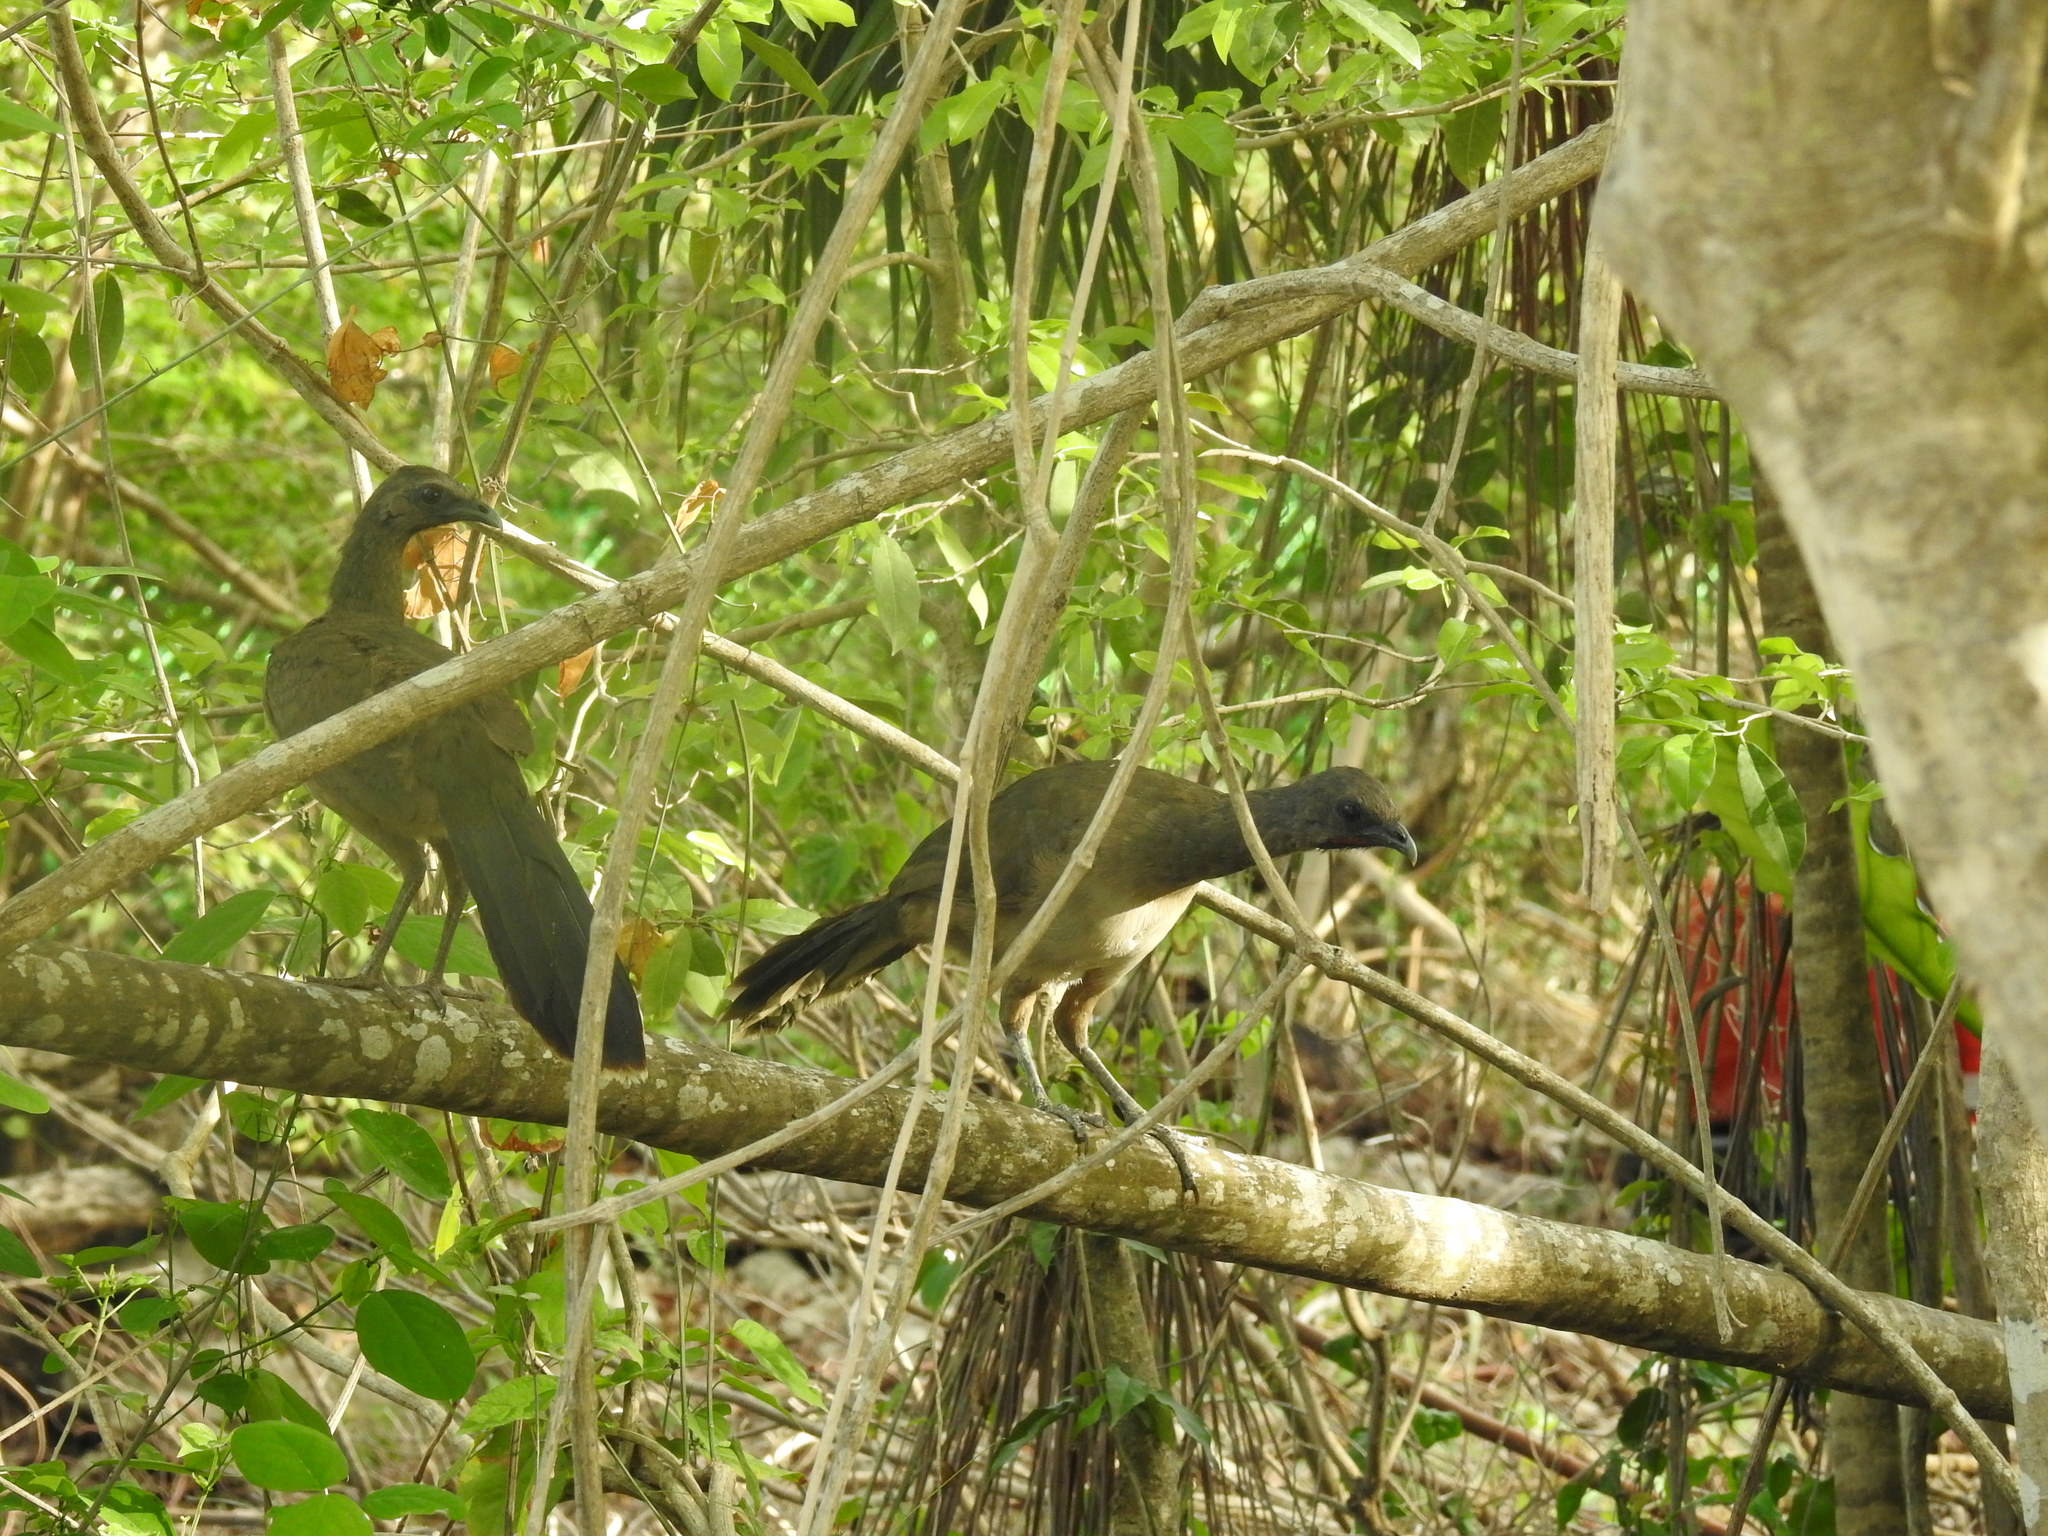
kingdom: Animalia
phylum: Chordata
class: Aves
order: Galliformes
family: Cracidae
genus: Ortalis
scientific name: Ortalis vetula
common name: Plain chachalaca
